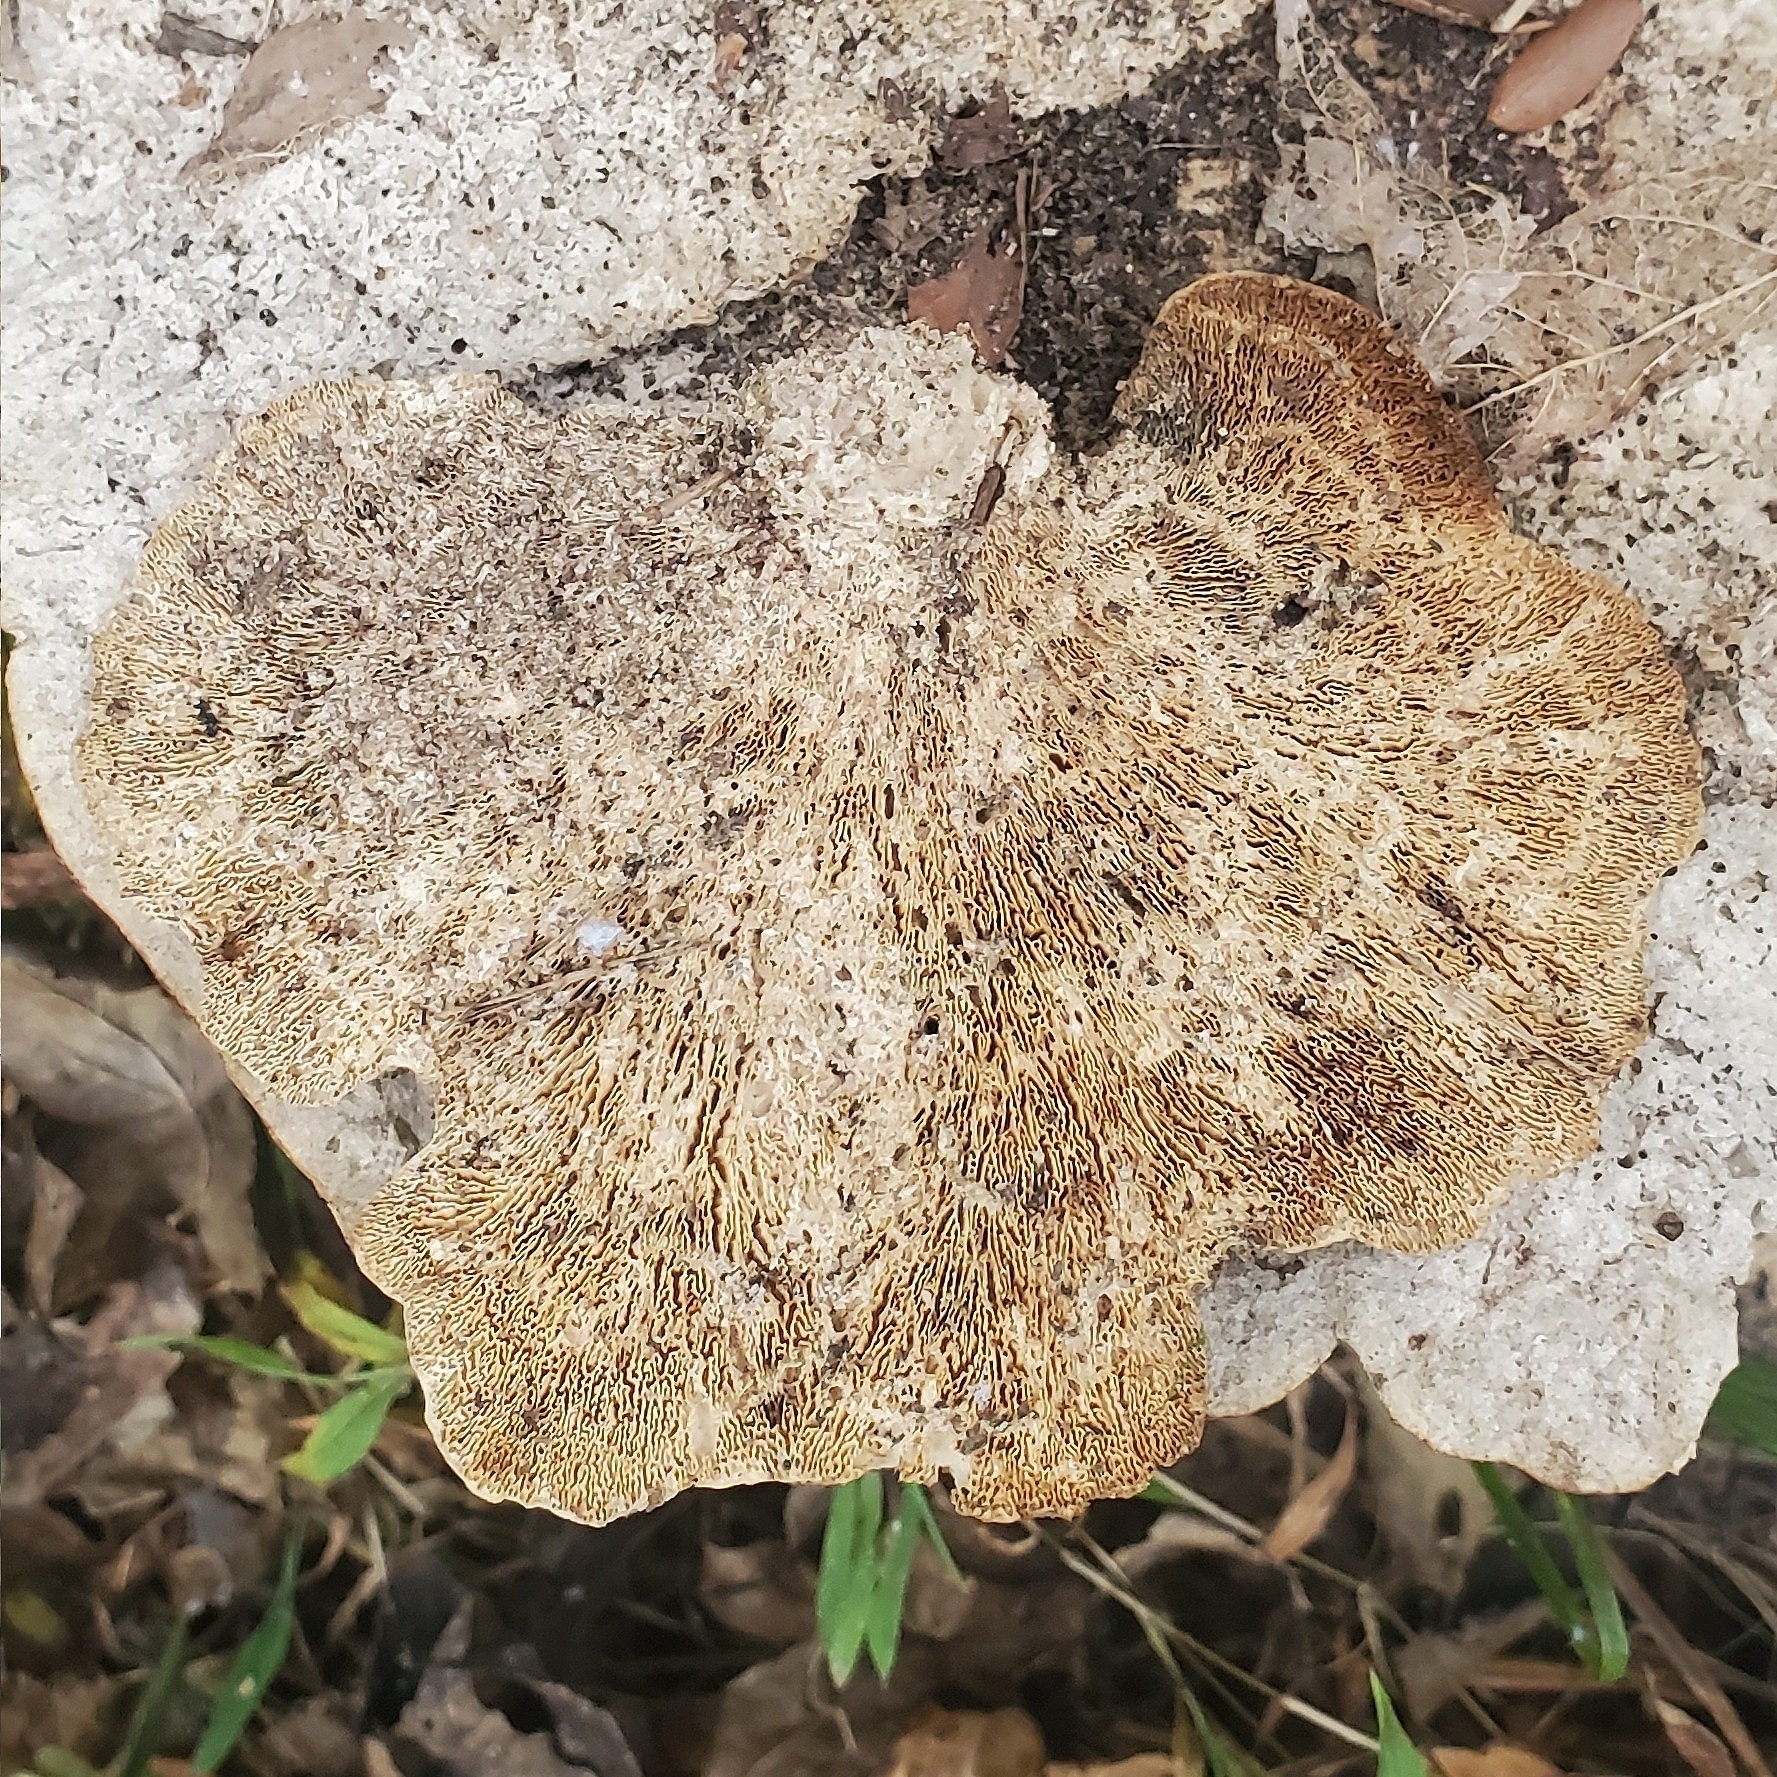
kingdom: Fungi
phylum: Basidiomycota
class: Agaricomycetes
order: Polyporales
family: Polyporaceae
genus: Trametes
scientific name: Trametes
